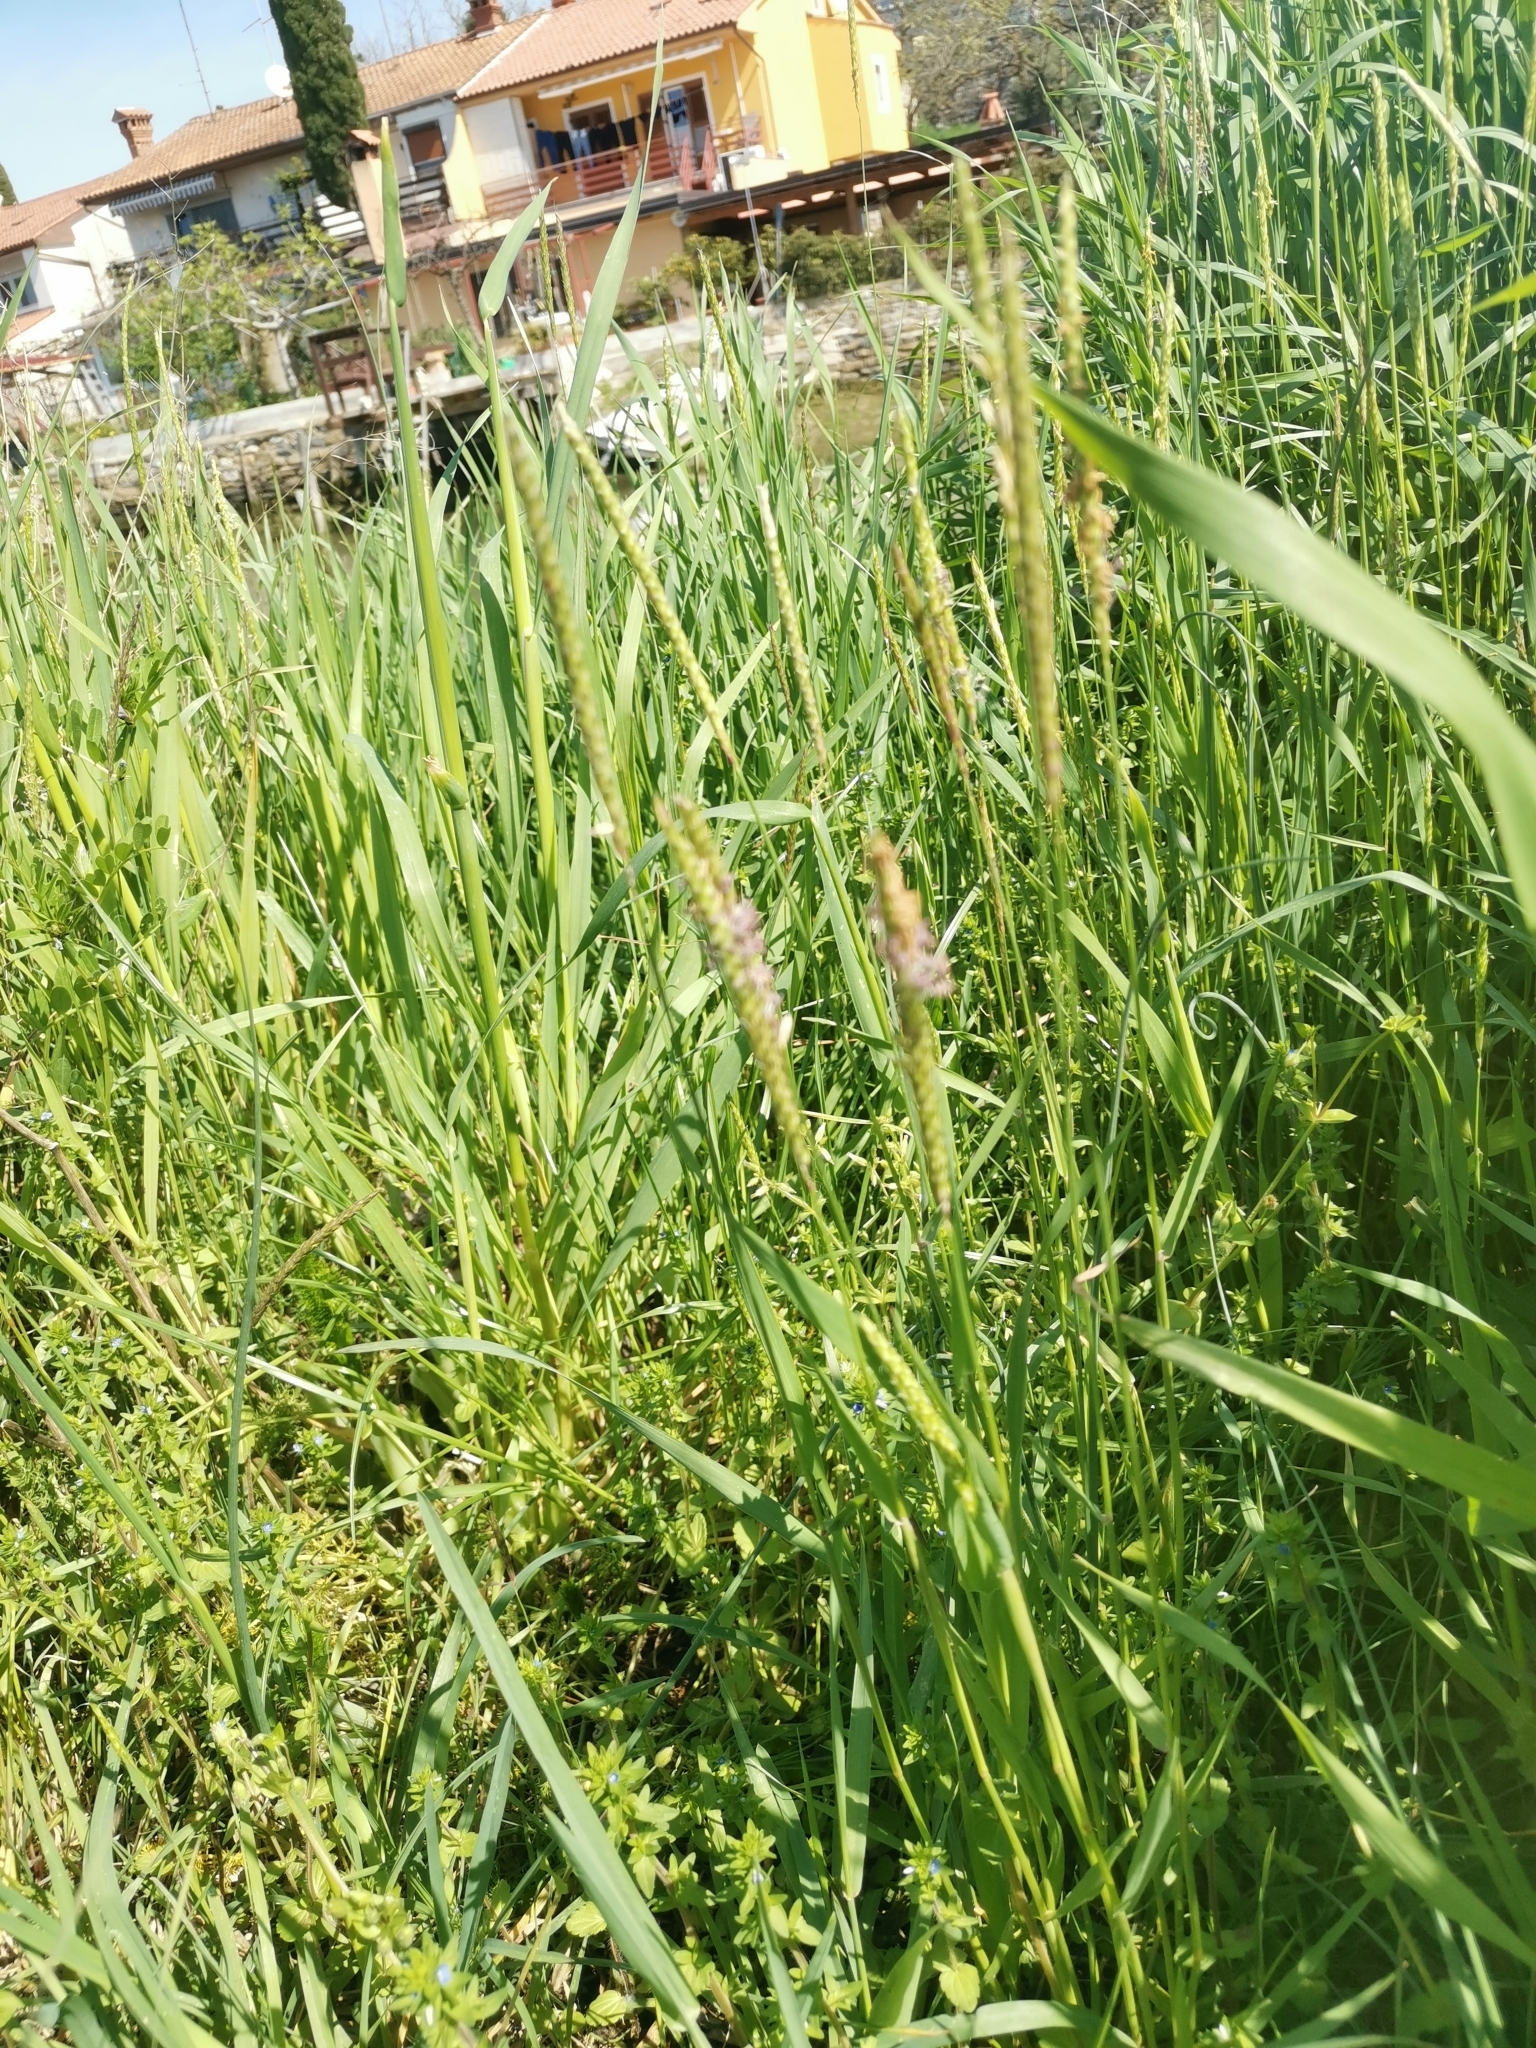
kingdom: Plantae
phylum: Tracheophyta
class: Liliopsida
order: Poales
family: Poaceae
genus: Alopecurus
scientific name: Alopecurus myosuroides
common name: Black-grass
